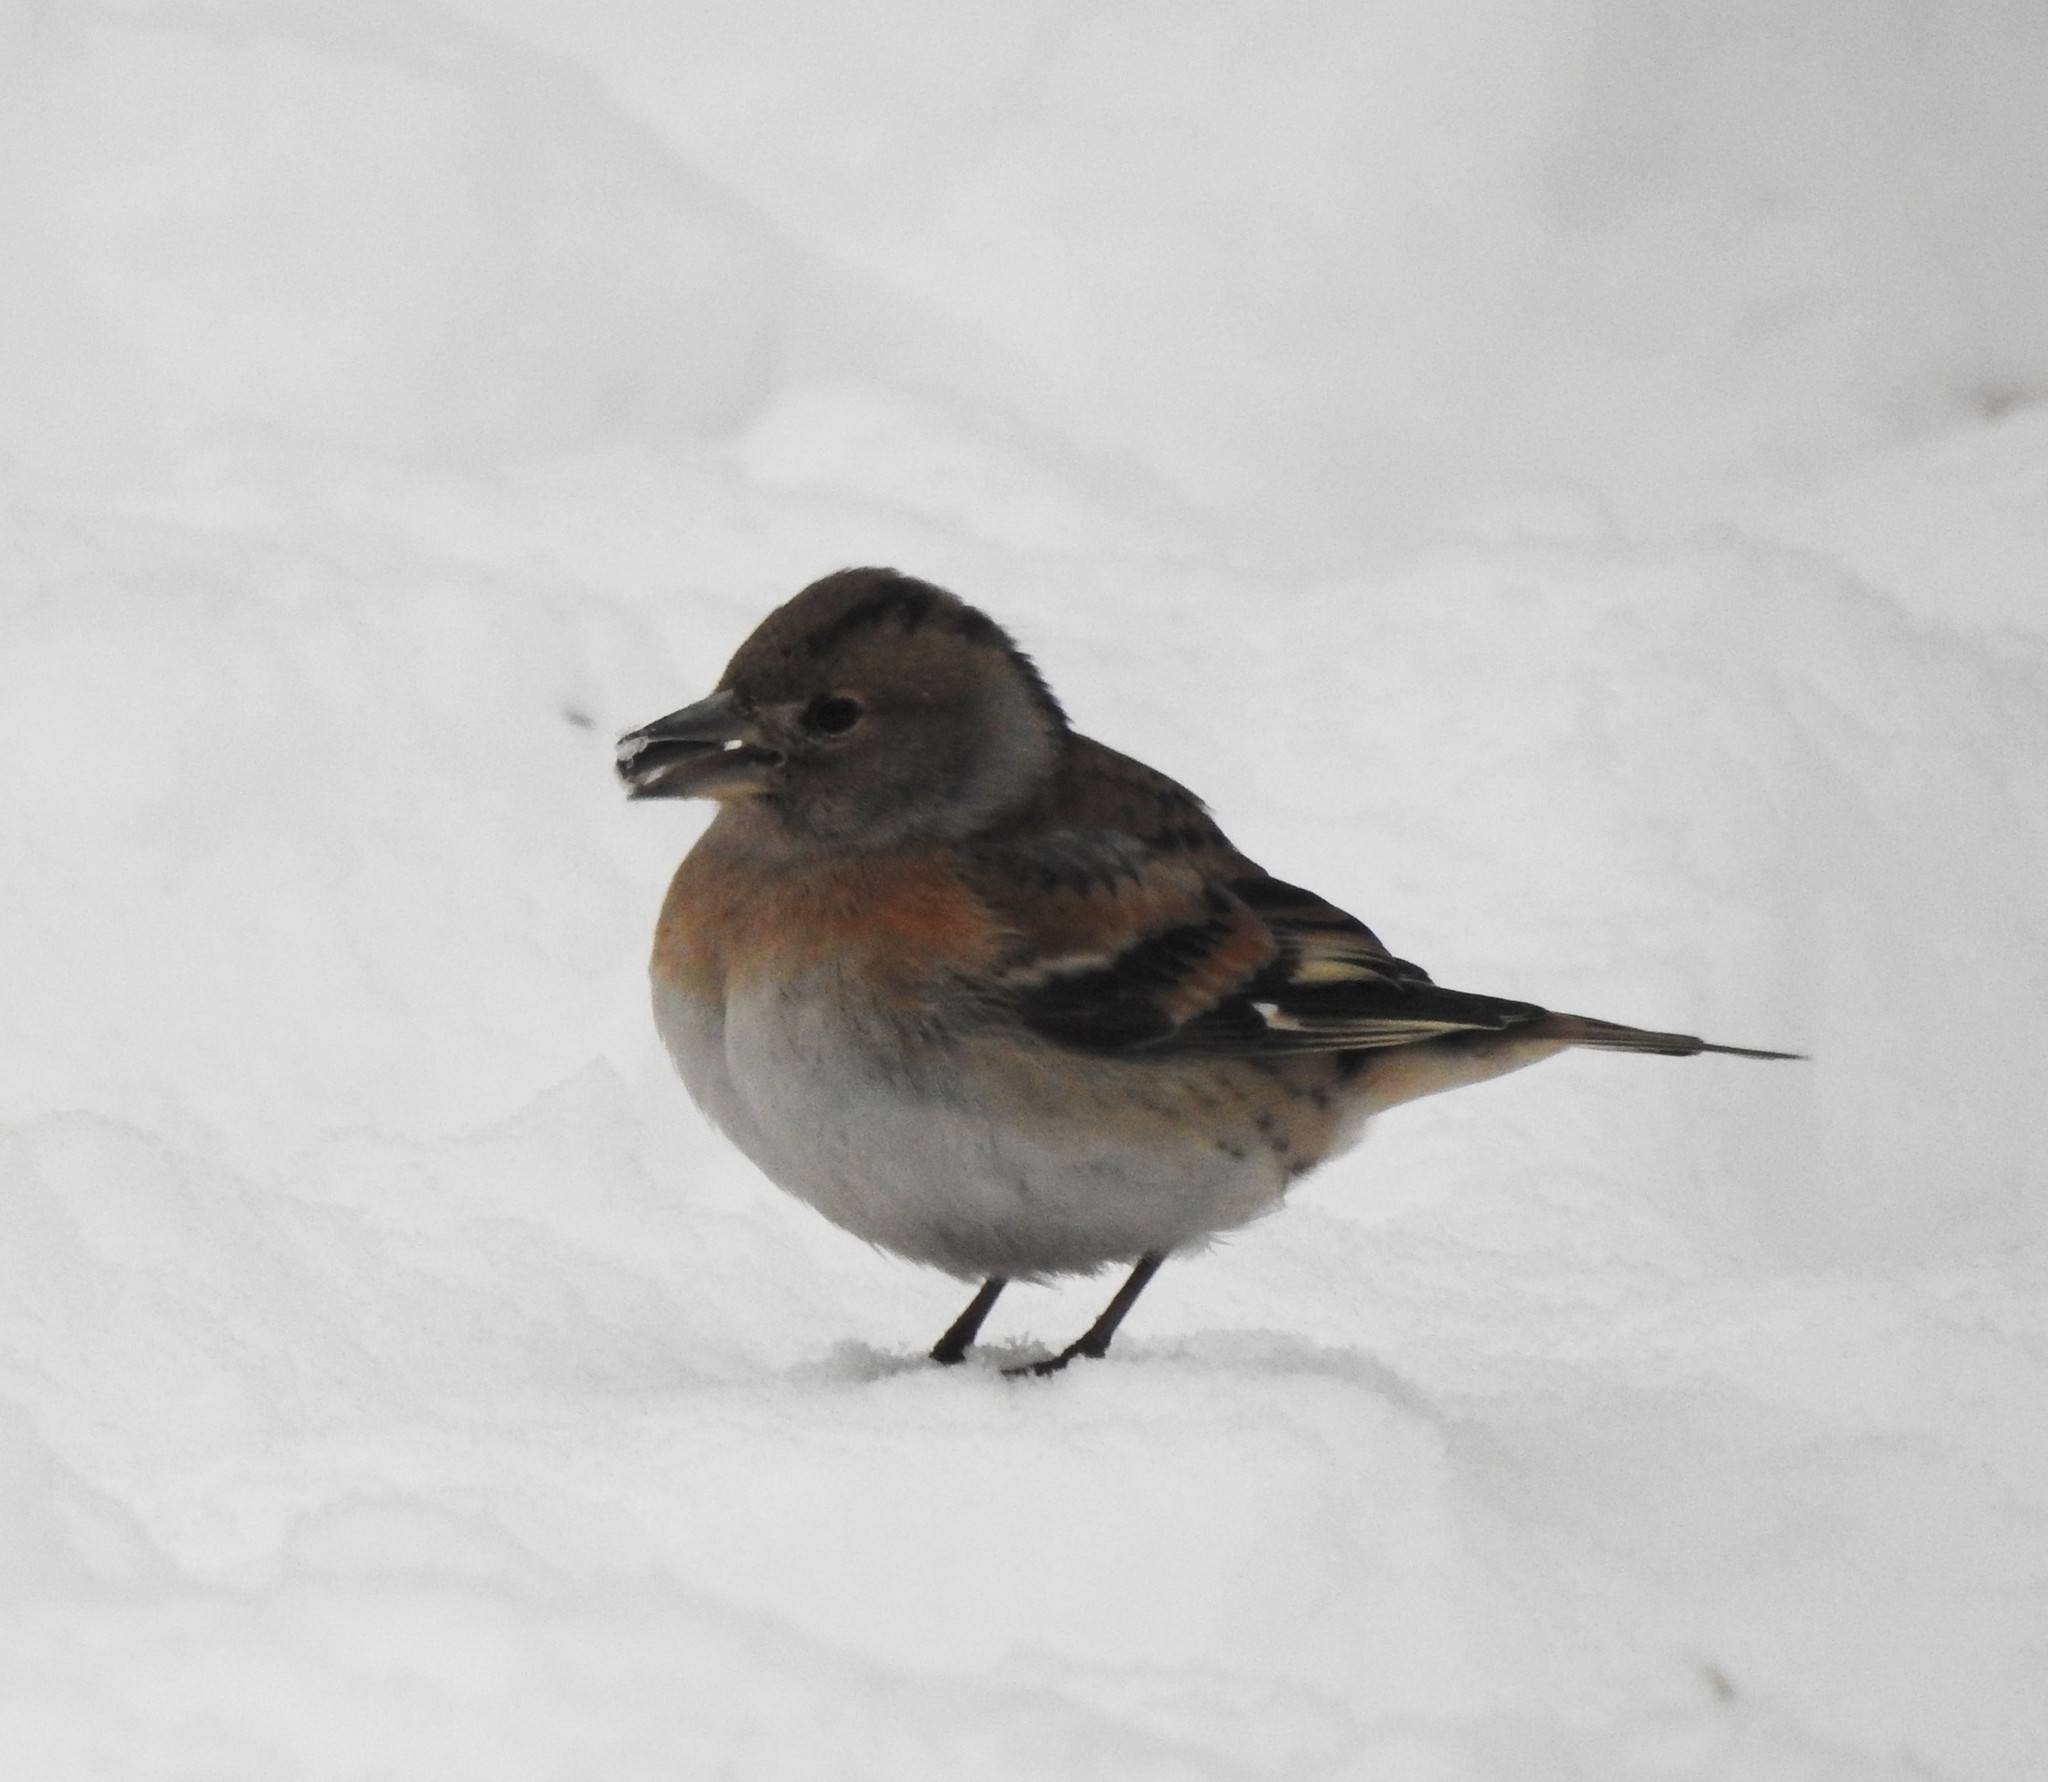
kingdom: Animalia
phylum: Chordata
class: Aves
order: Passeriformes
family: Fringillidae
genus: Fringilla
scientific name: Fringilla montifringilla
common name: Brambling
